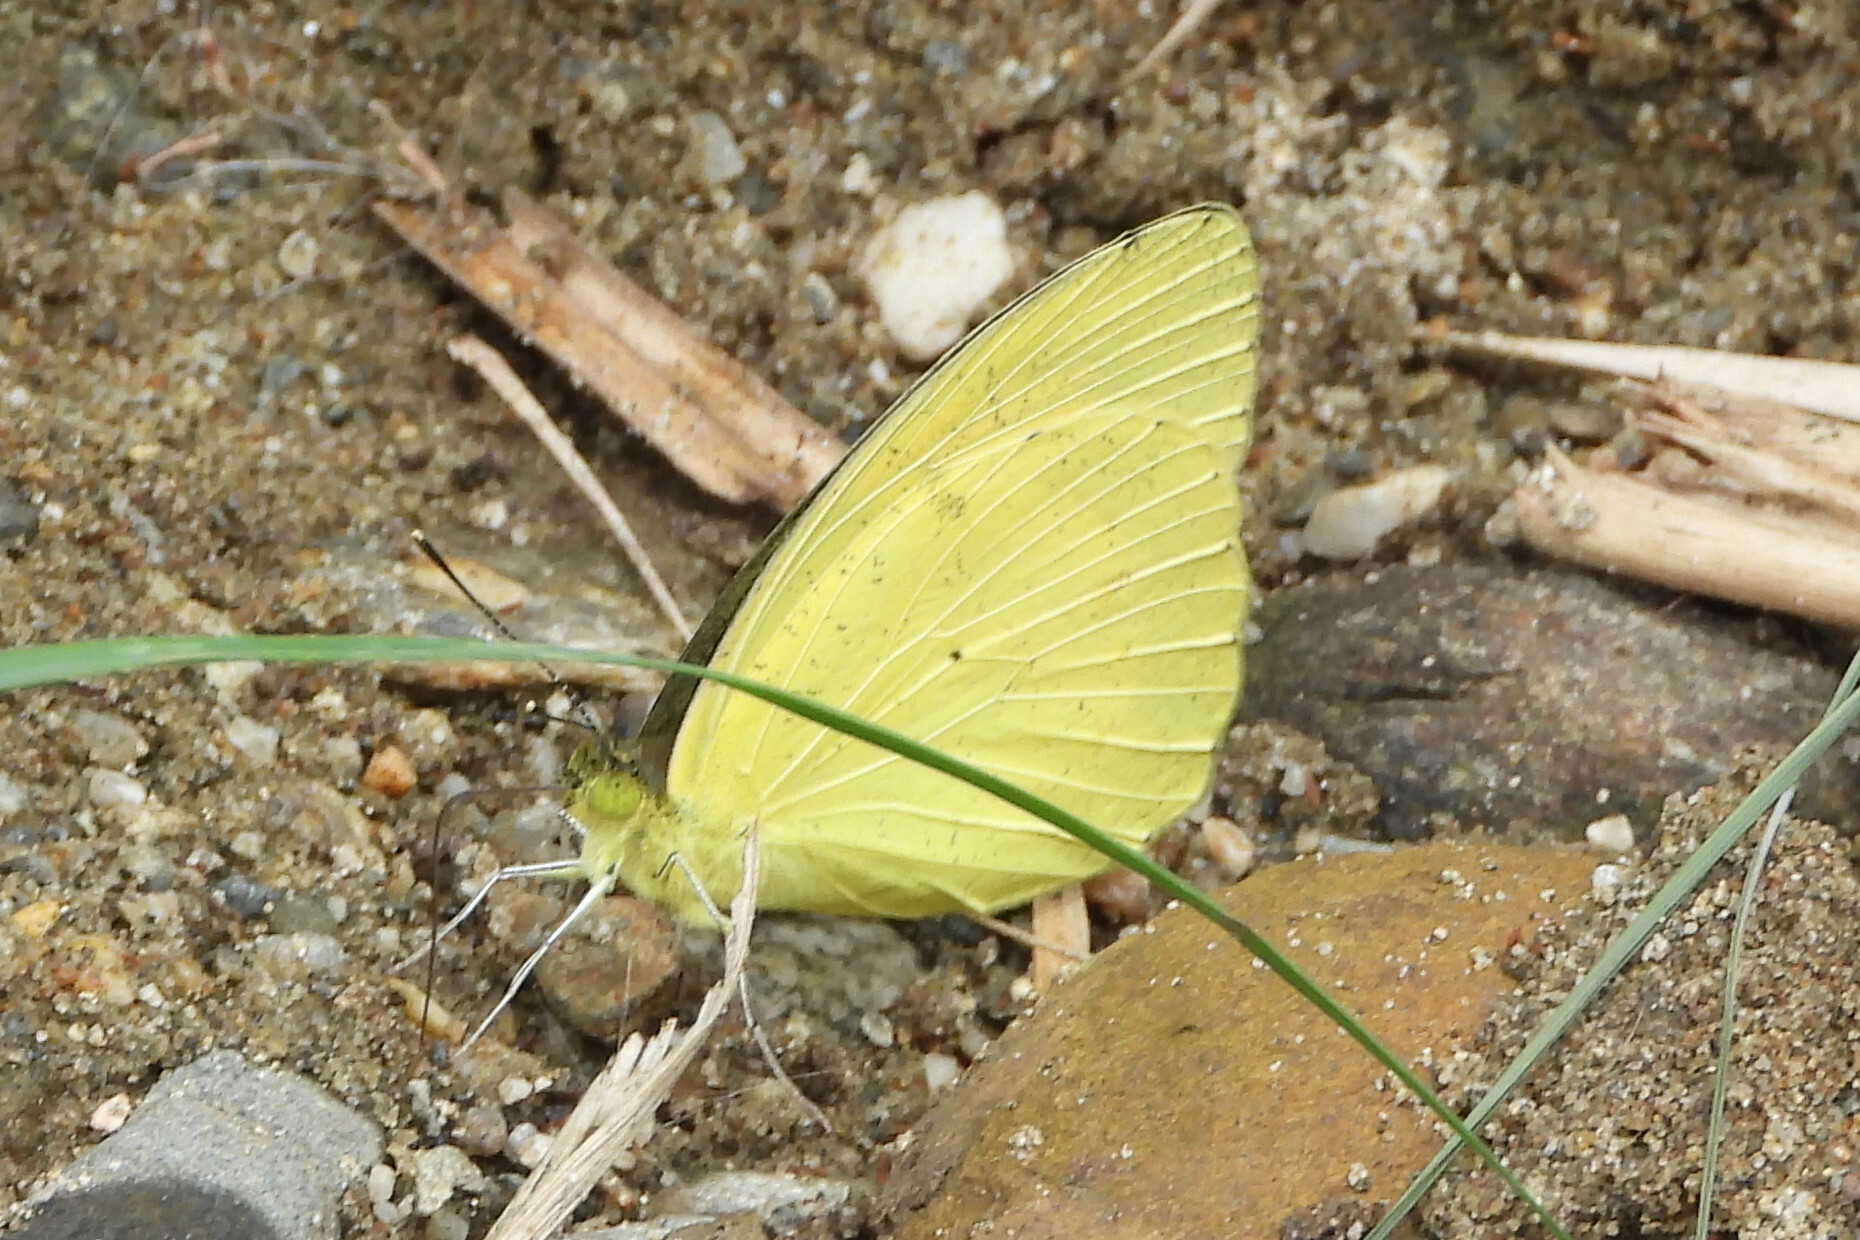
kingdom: Animalia
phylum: Arthropoda
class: Insecta
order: Lepidoptera
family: Pieridae
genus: Ixias
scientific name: Ixias pyrene
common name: Yellow orange tip
